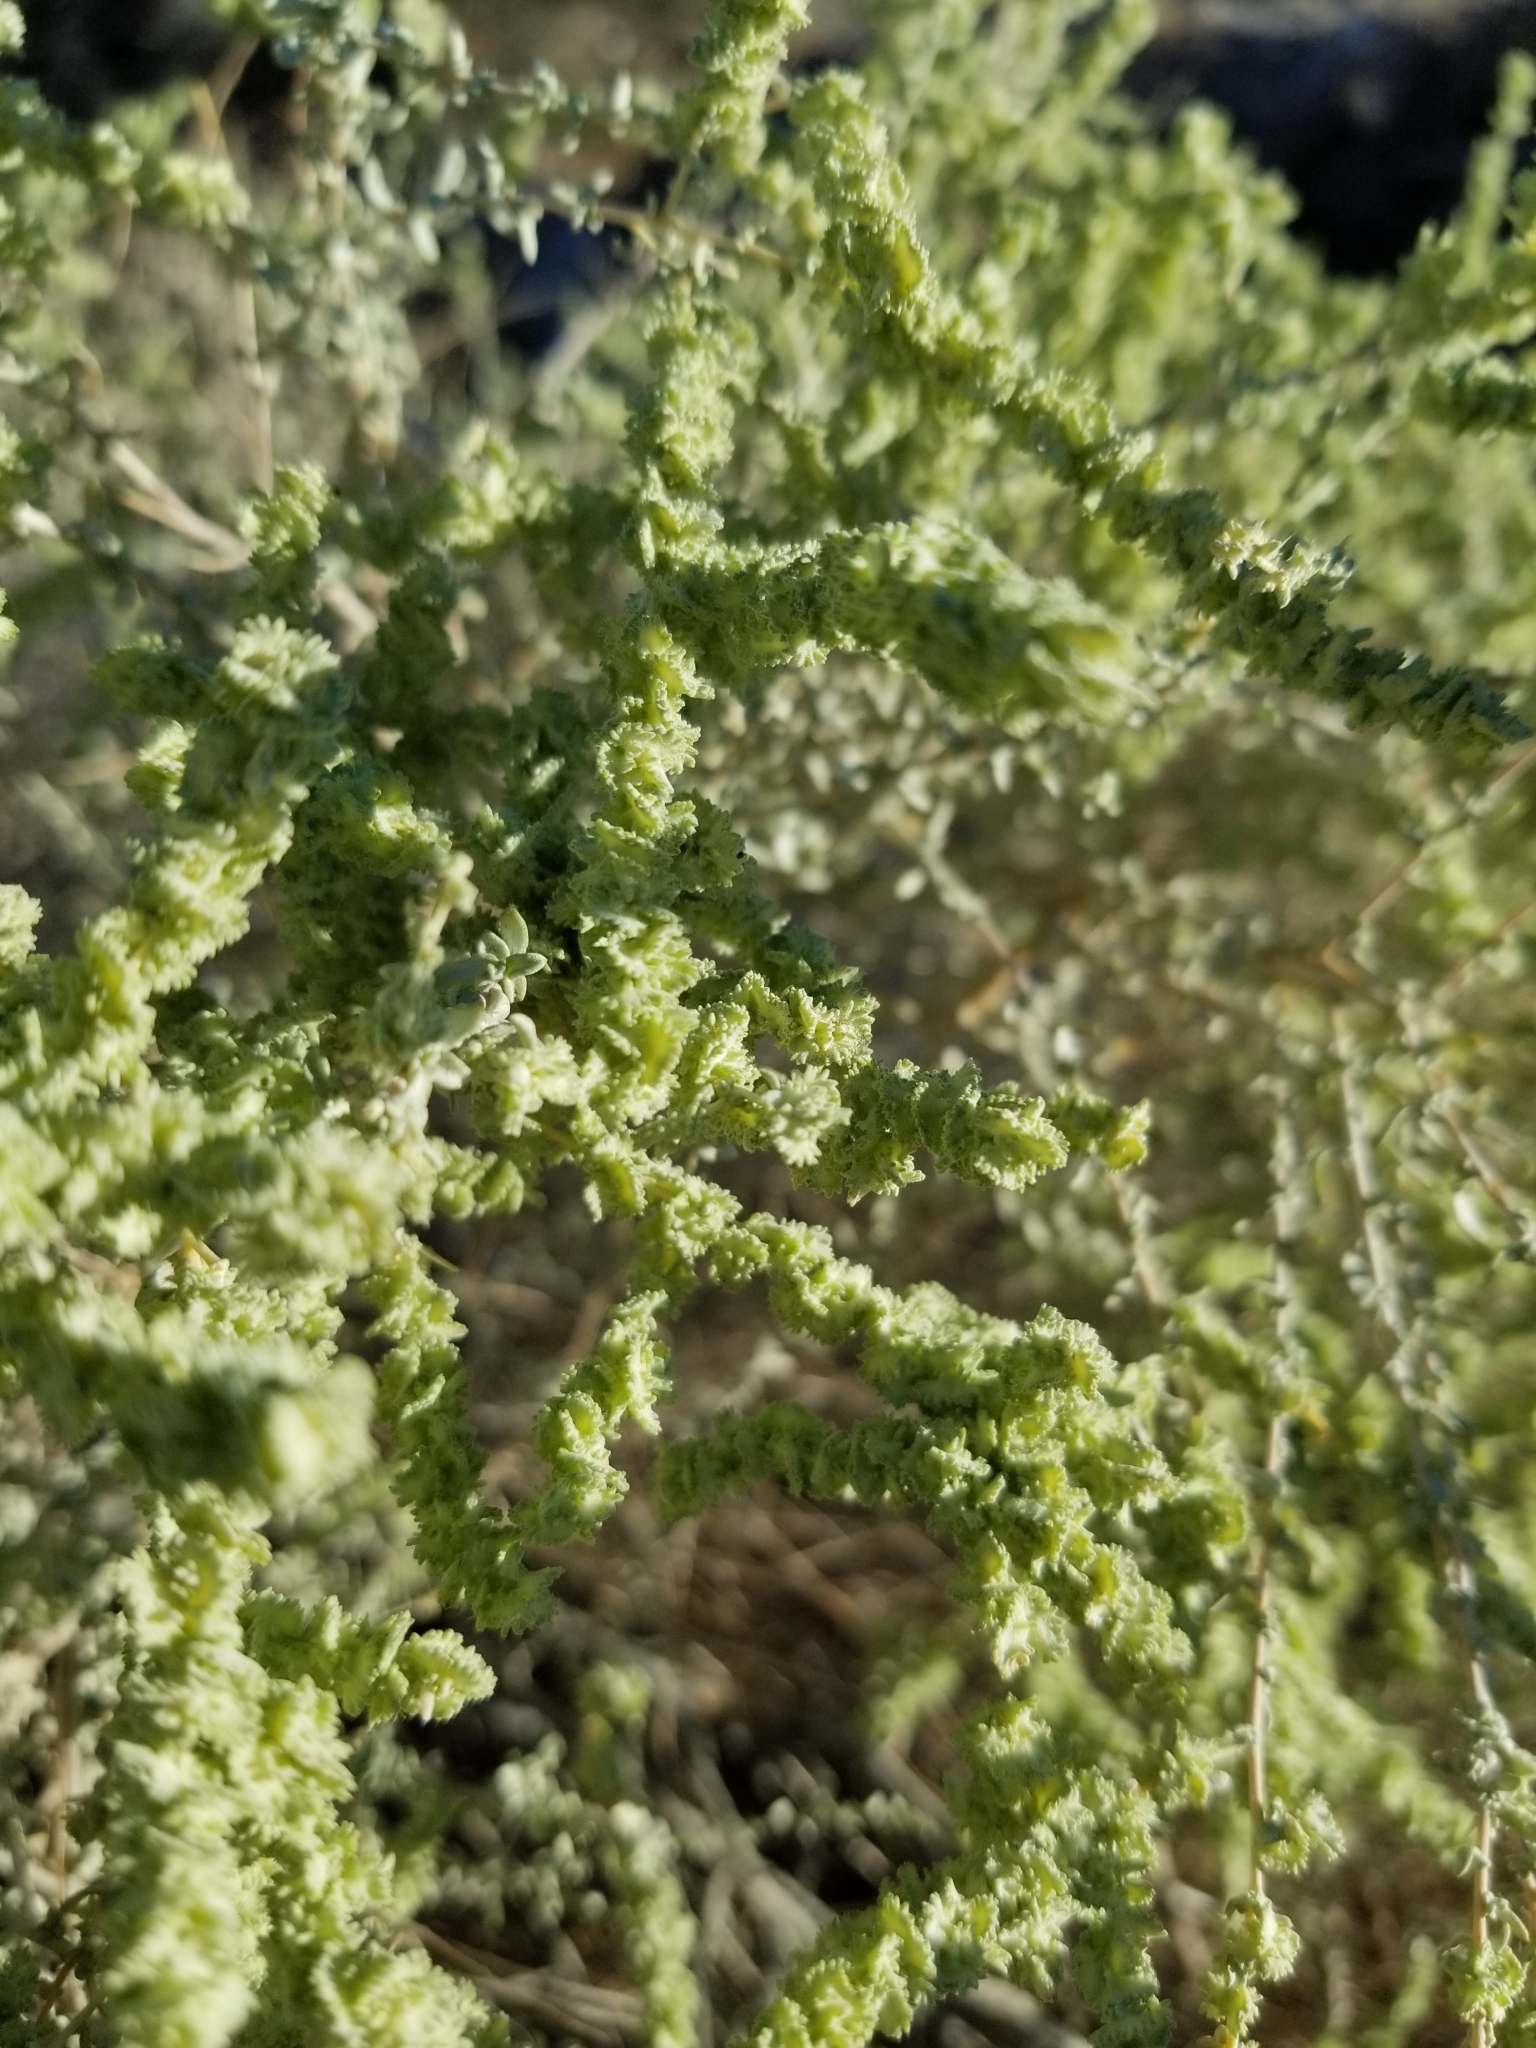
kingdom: Plantae
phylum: Tracheophyta
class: Magnoliopsida
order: Caryophyllales
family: Amaranthaceae
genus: Atriplex
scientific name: Atriplex polycarpa
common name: Desert saltbush
